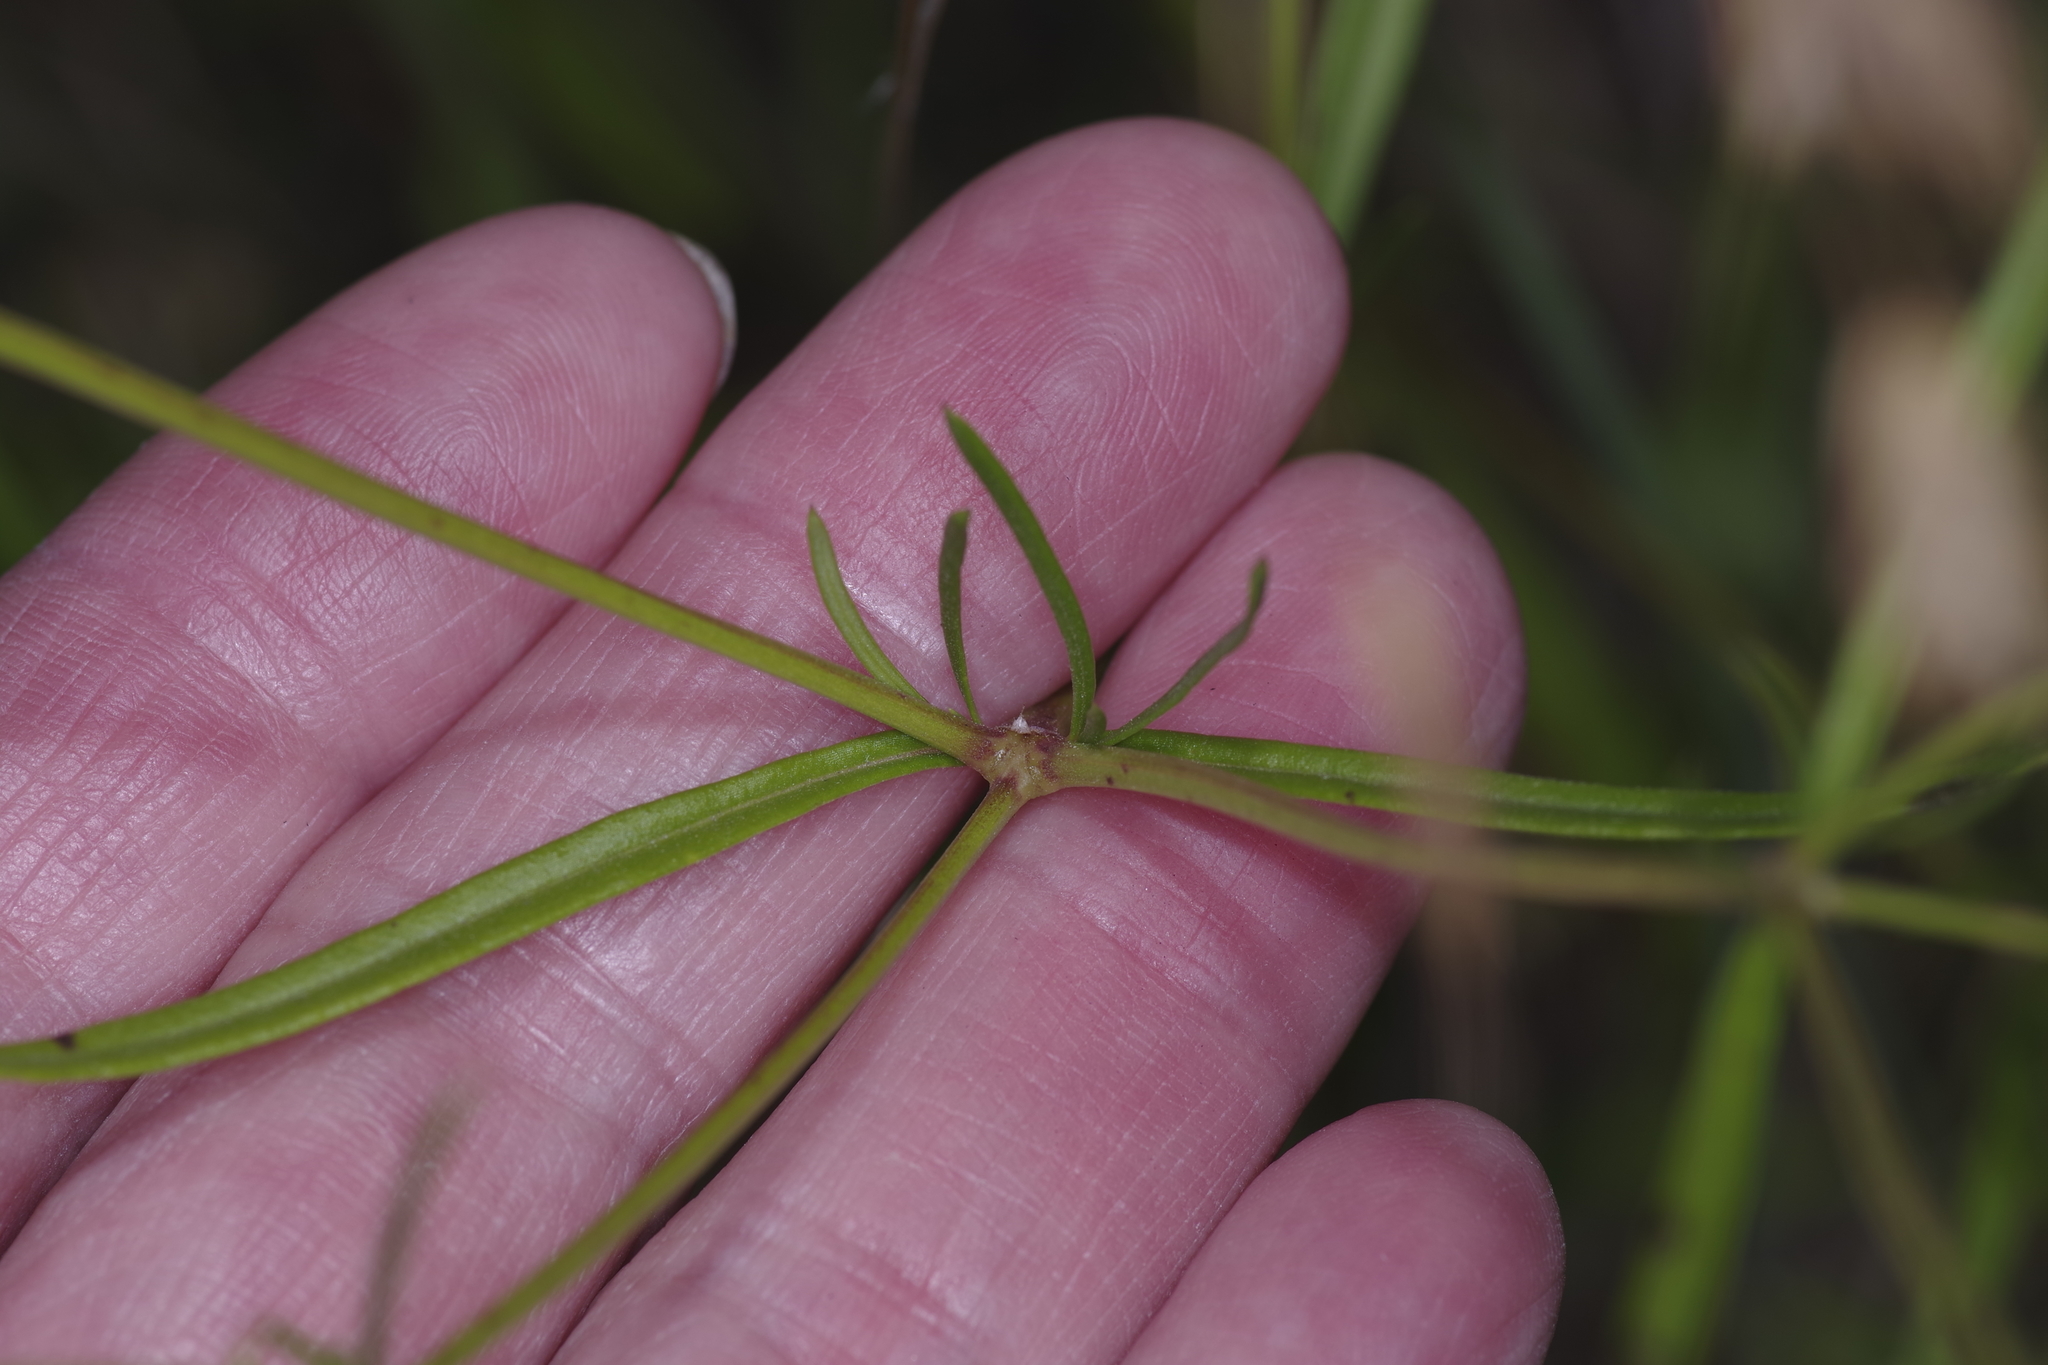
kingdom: Plantae
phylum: Tracheophyta
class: Magnoliopsida
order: Gentianales
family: Rubiaceae
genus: Stenaria
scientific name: Stenaria nigricans
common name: Diamondflowers
